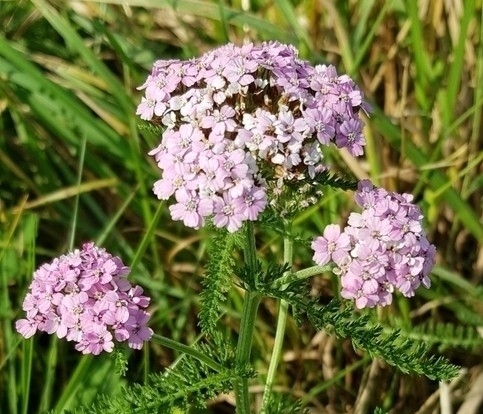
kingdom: Plantae
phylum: Tracheophyta
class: Magnoliopsida
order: Asterales
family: Asteraceae
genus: Achillea
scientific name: Achillea millefolium
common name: Yarrow
